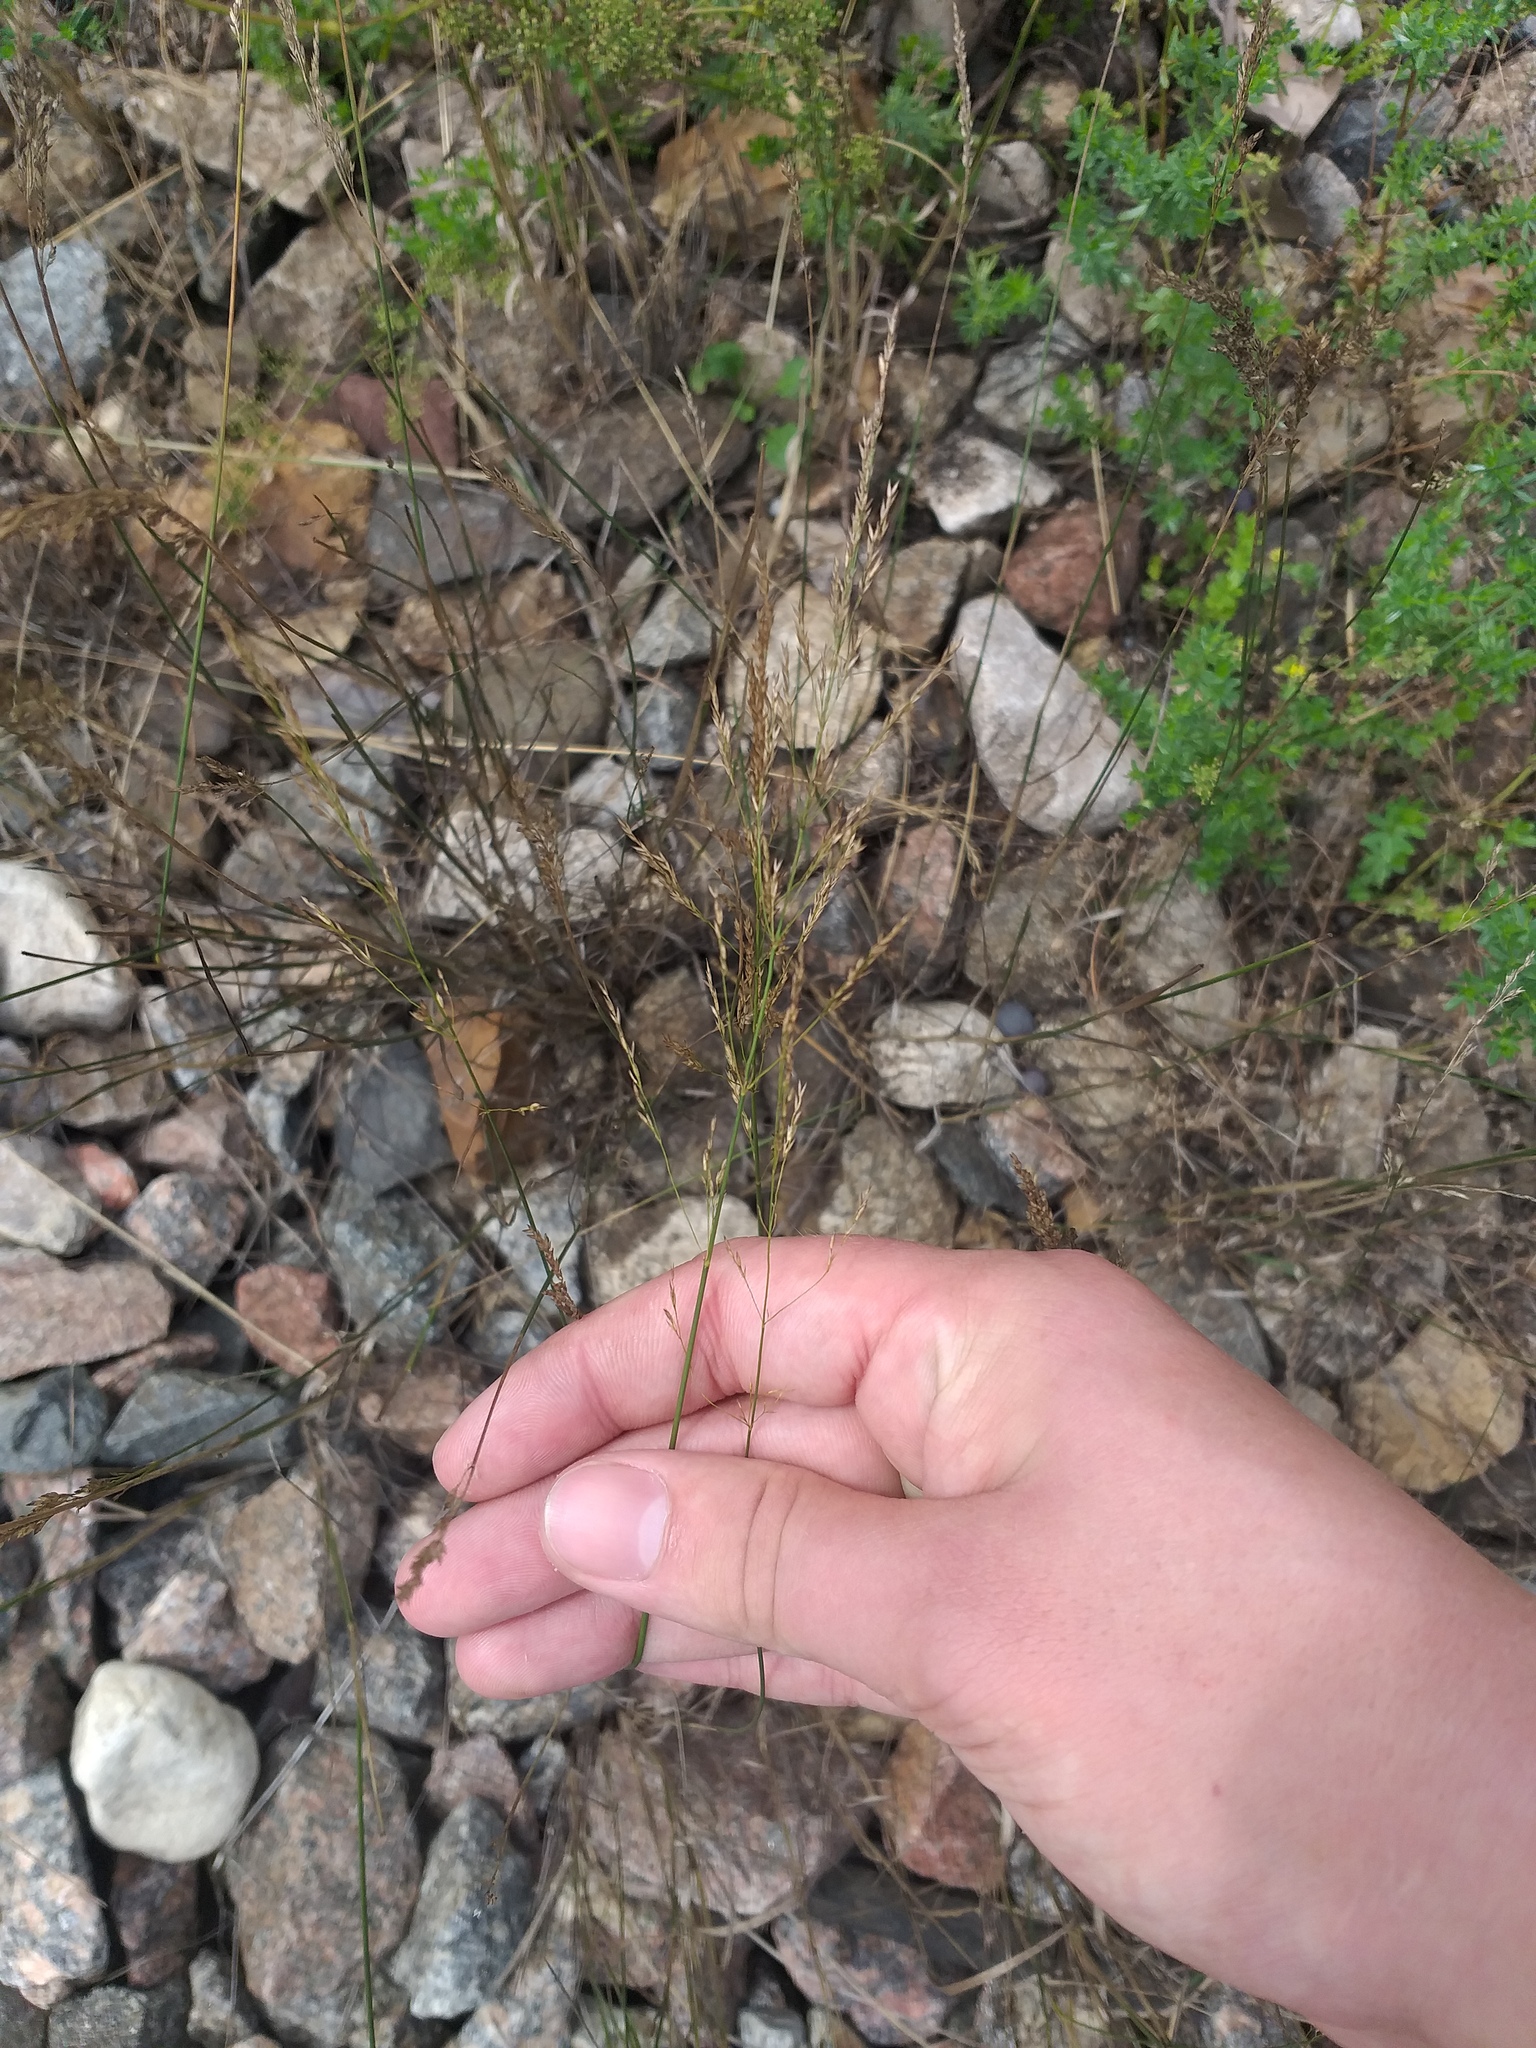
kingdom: Plantae
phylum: Tracheophyta
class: Liliopsida
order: Poales
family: Poaceae
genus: Poa
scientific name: Poa palustris
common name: Swamp meadow-grass
